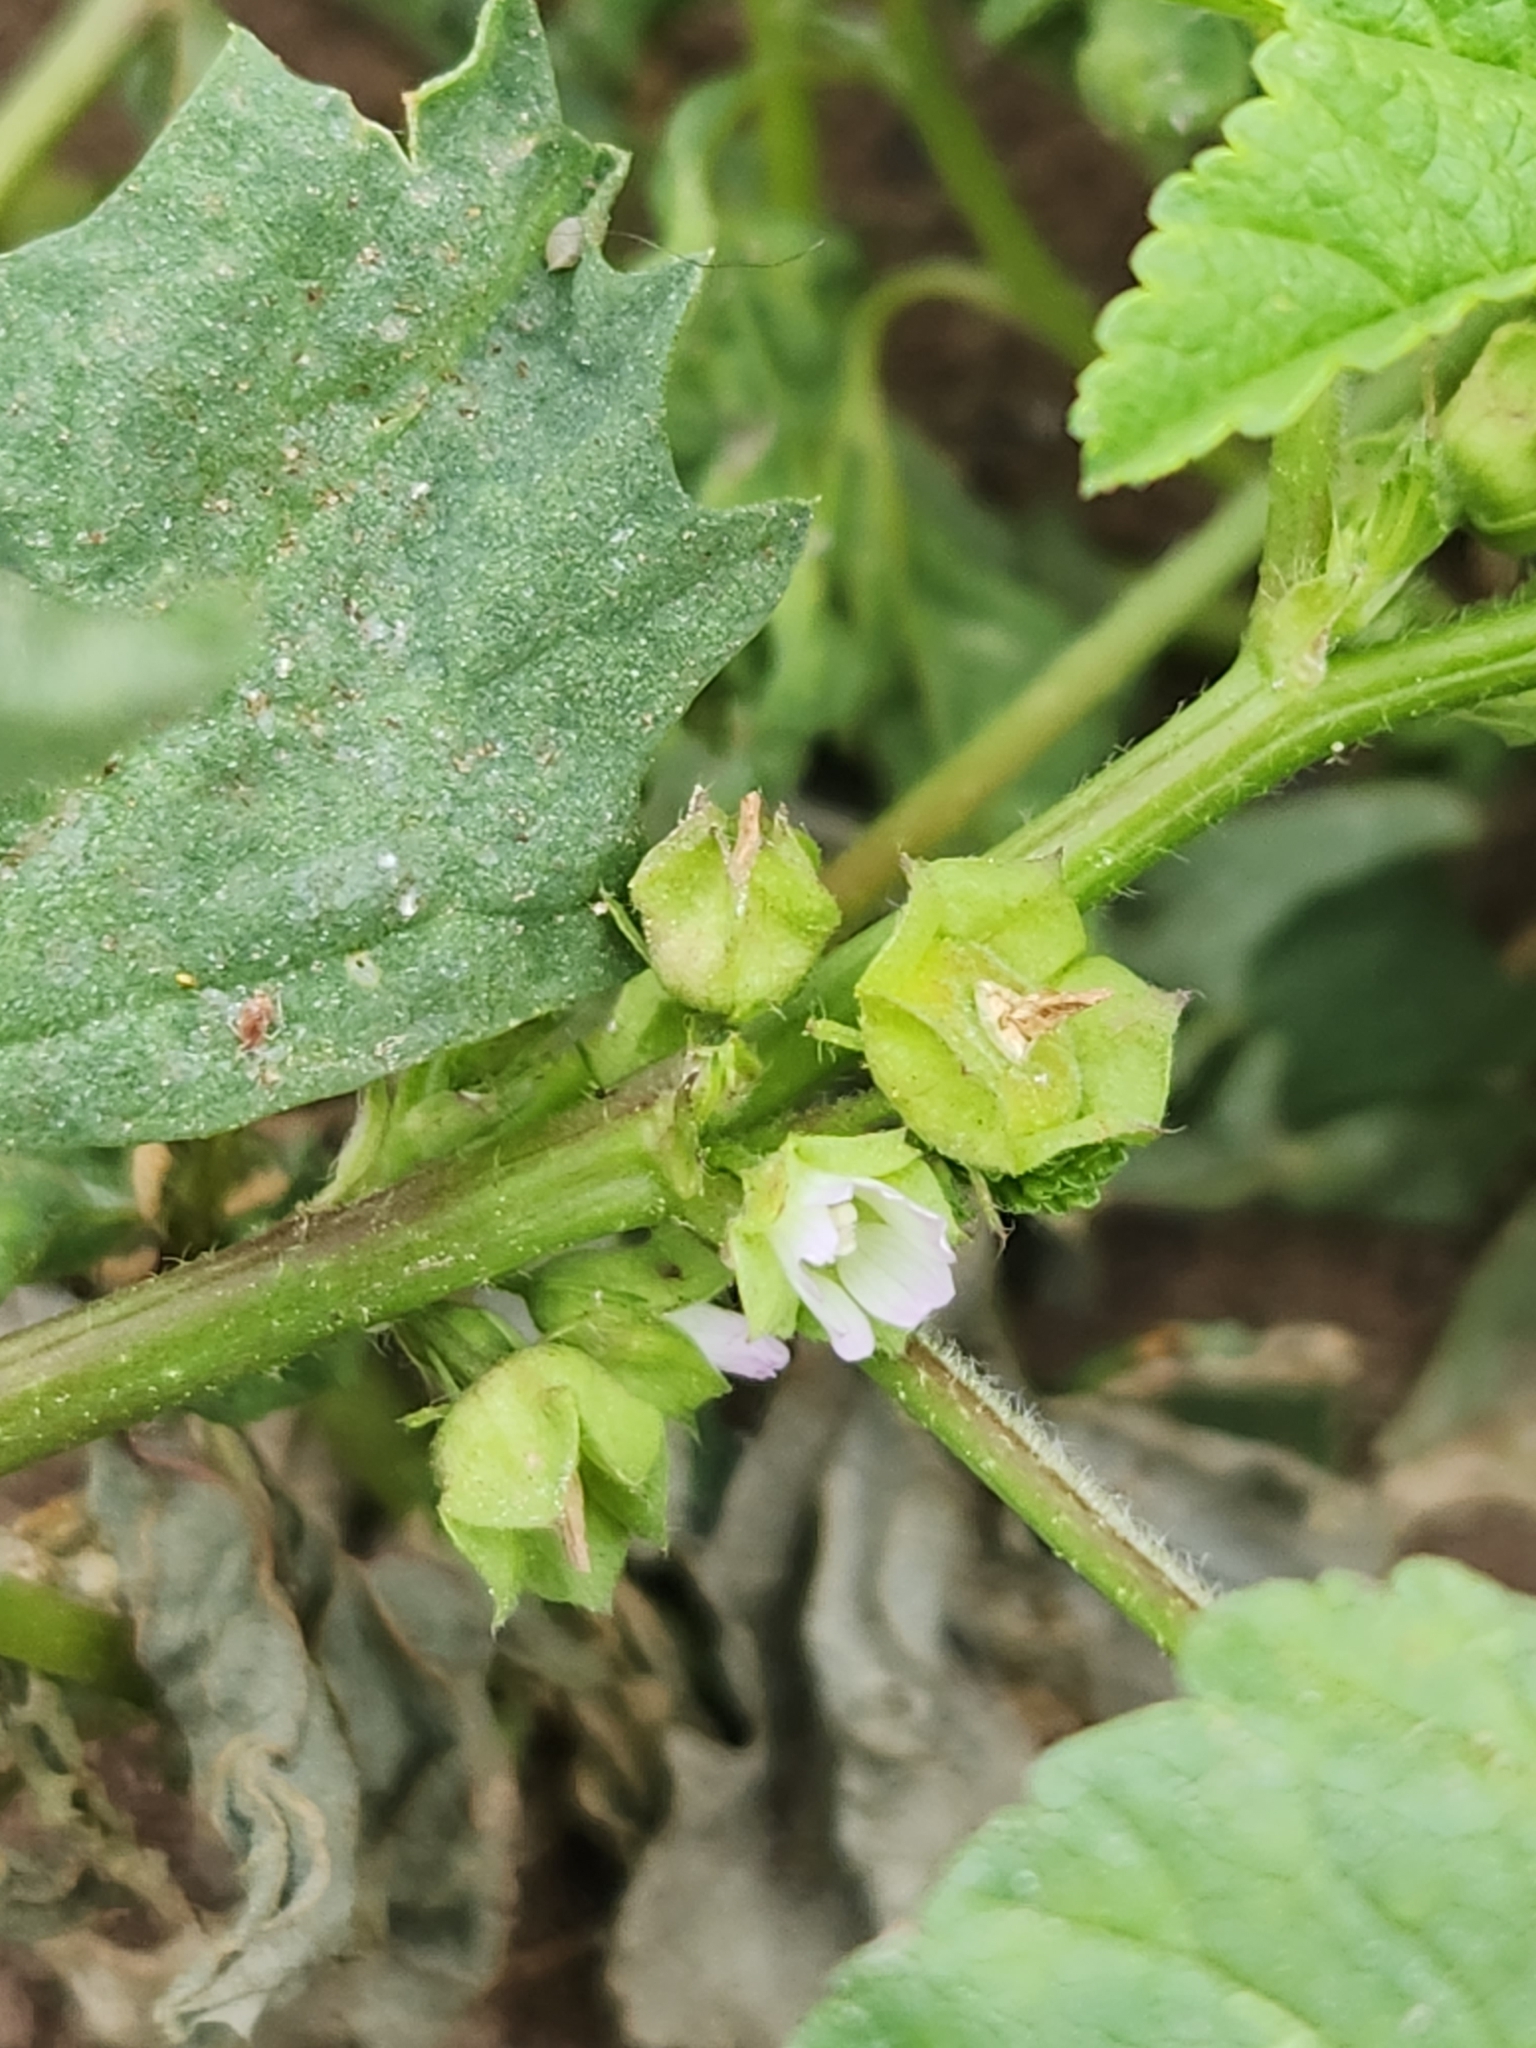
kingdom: Plantae
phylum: Tracheophyta
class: Magnoliopsida
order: Malvales
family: Malvaceae
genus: Malva
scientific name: Malva parviflora
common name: Least mallow
